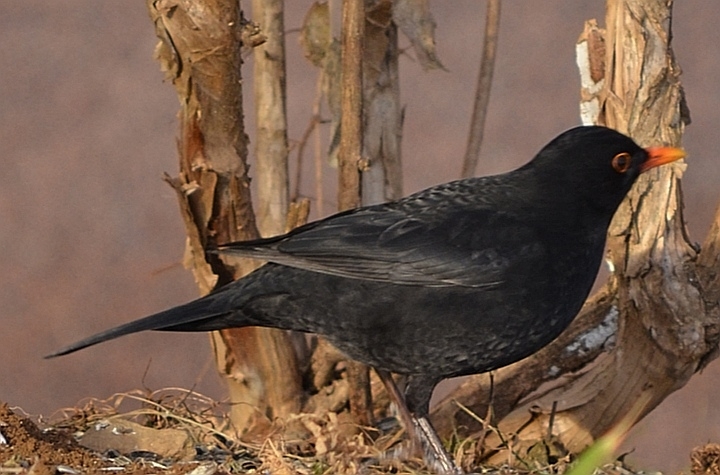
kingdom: Animalia
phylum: Chordata
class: Aves
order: Passeriformes
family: Turdidae
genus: Turdus
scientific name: Turdus merula
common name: Common blackbird
